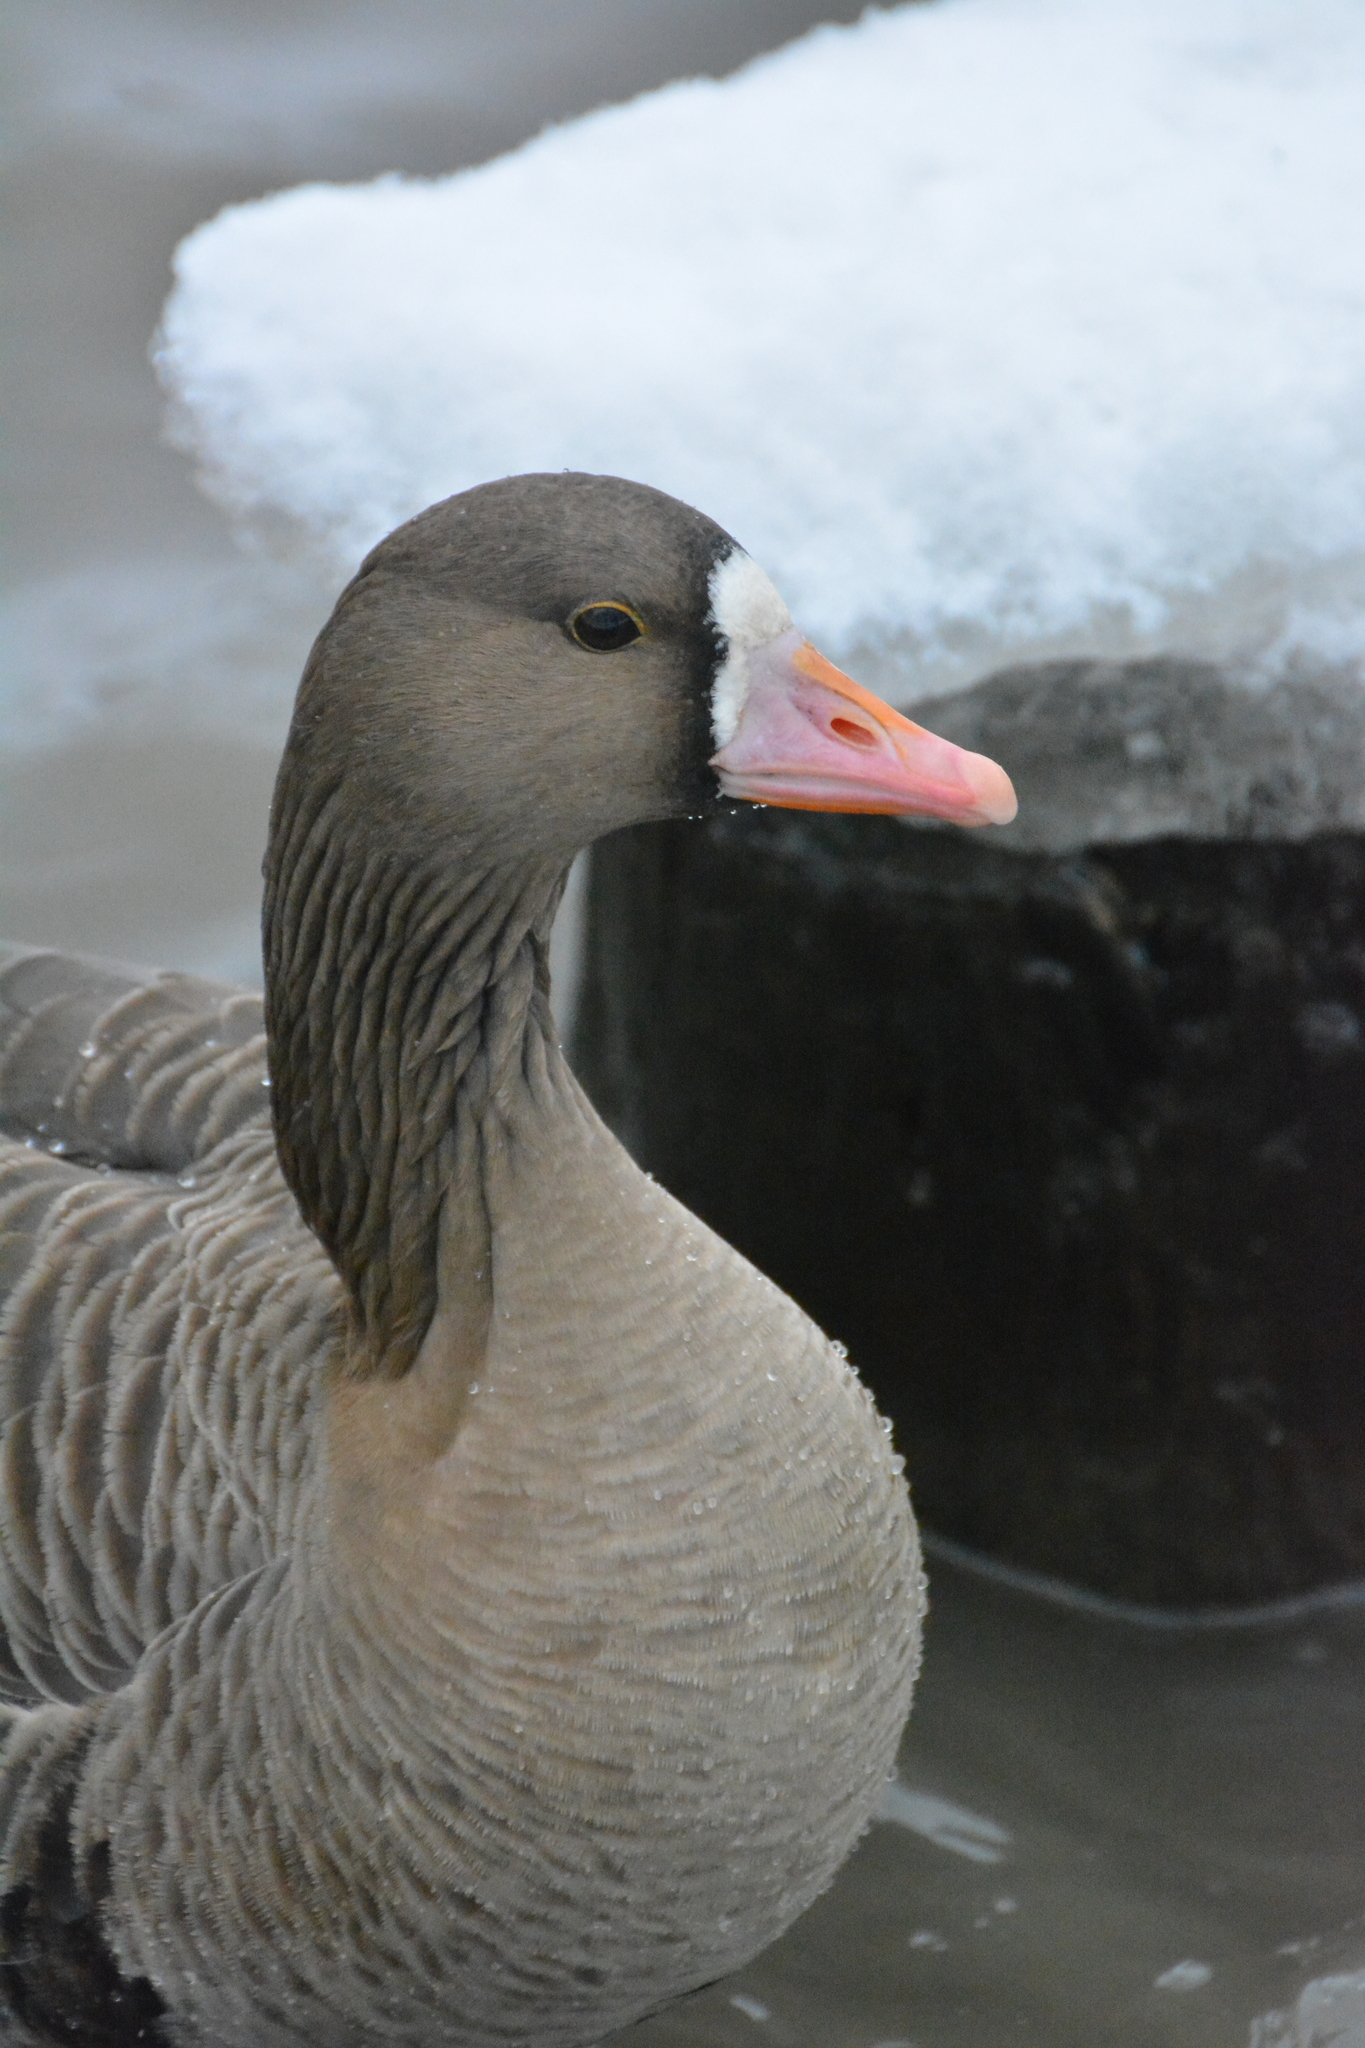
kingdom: Animalia
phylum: Chordata
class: Aves
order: Anseriformes
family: Anatidae
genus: Anser
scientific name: Anser albifrons
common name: Greater white-fronted goose
